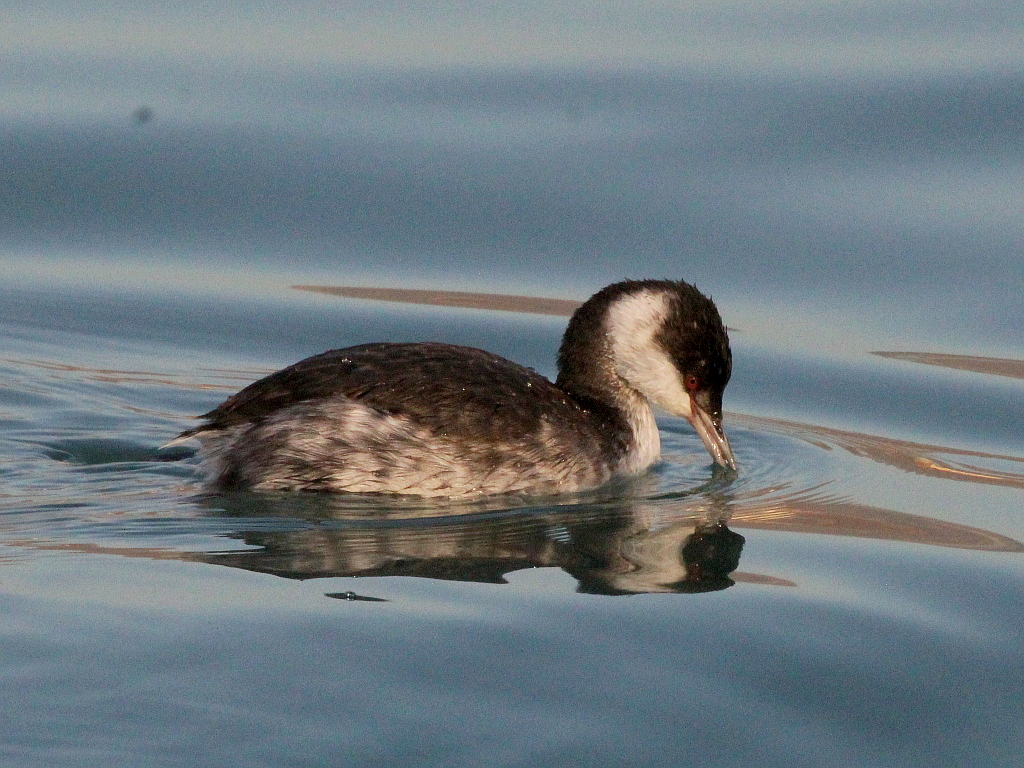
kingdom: Animalia
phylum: Chordata
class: Aves
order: Podicipediformes
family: Podicipedidae
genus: Podiceps
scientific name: Podiceps nigricollis
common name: Black-necked grebe
